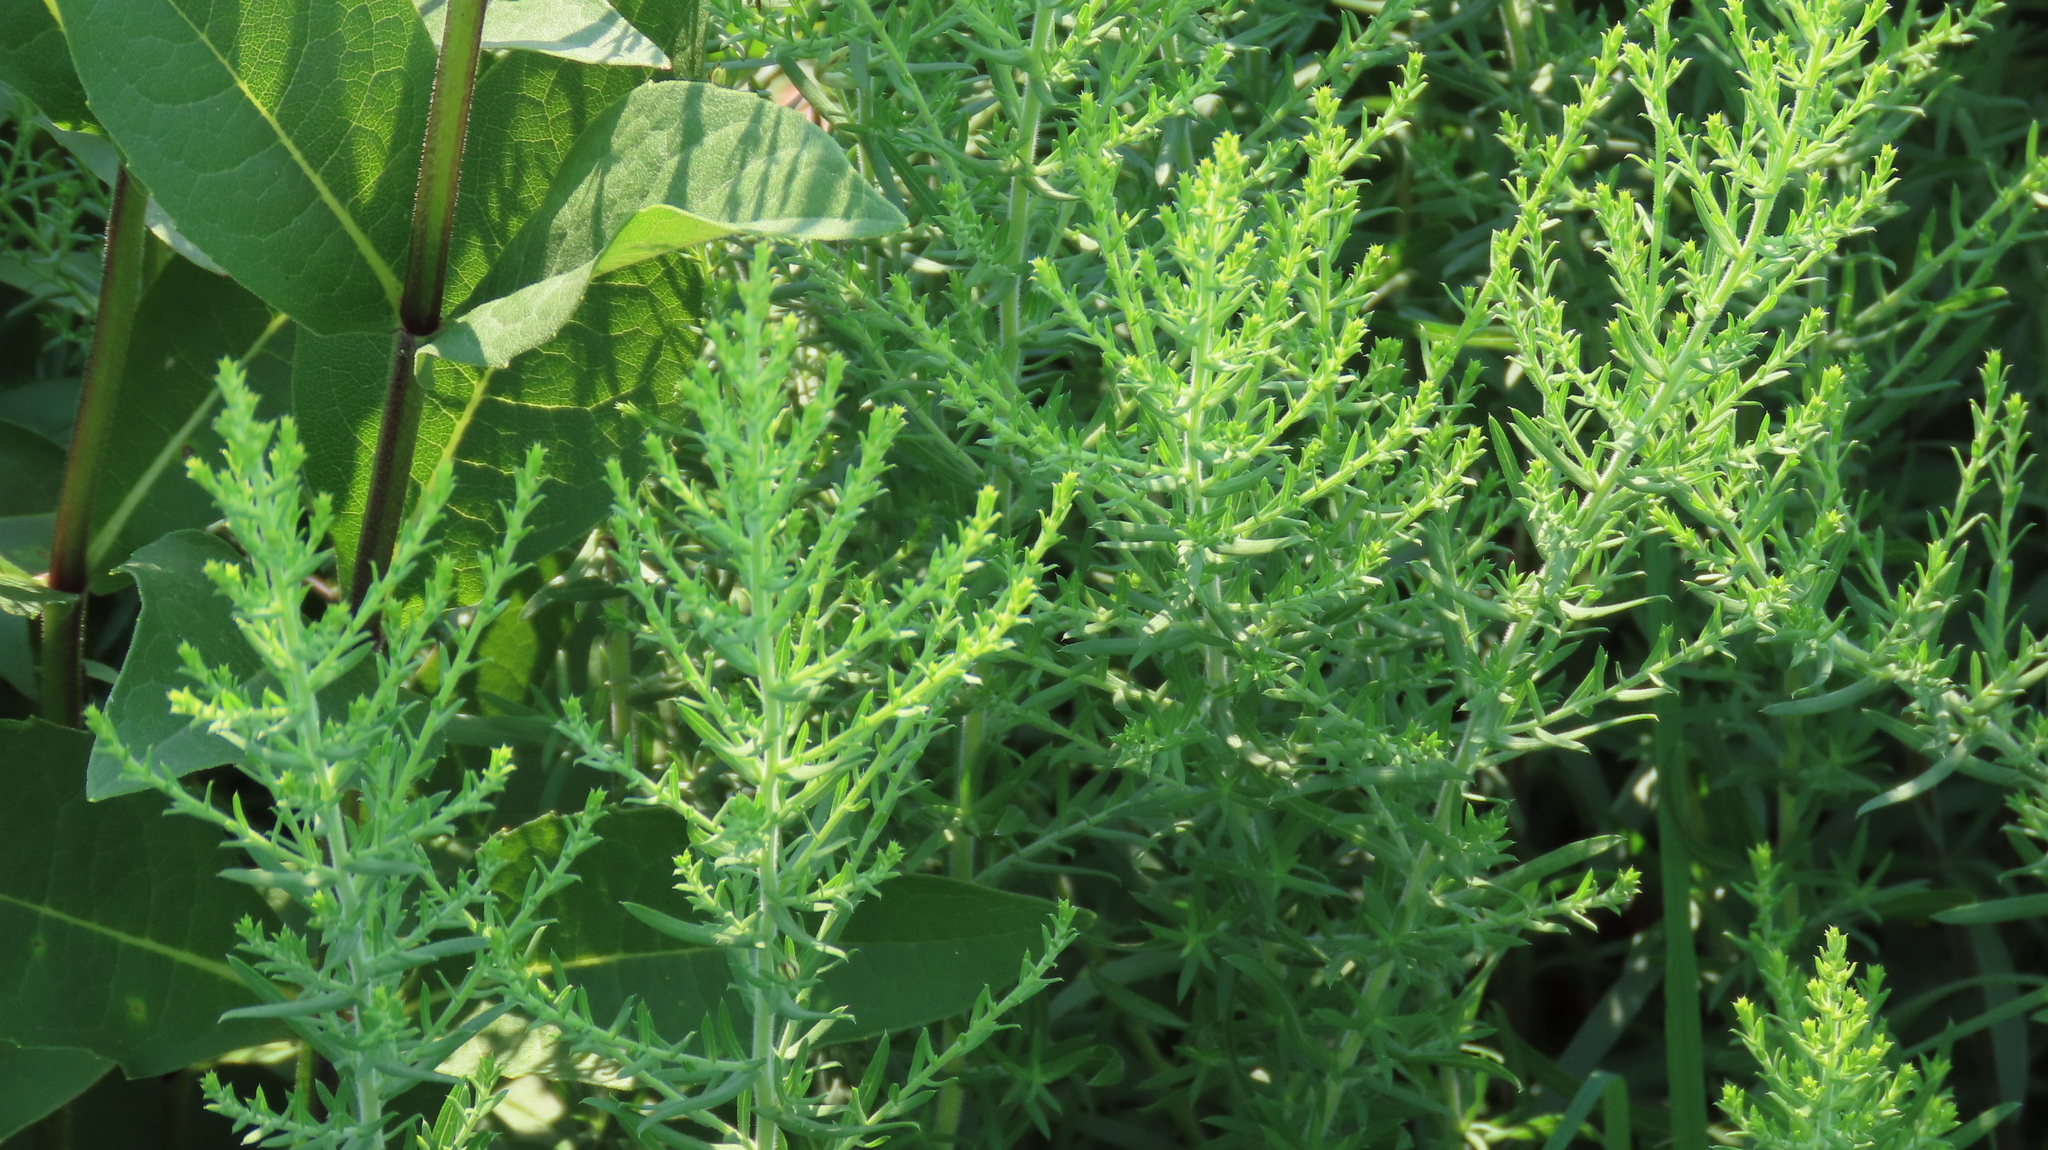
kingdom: Plantae
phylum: Tracheophyta
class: Magnoliopsida
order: Asterales
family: Asteraceae
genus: Symphyotrichum
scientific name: Symphyotrichum ericoides
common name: Heath aster
